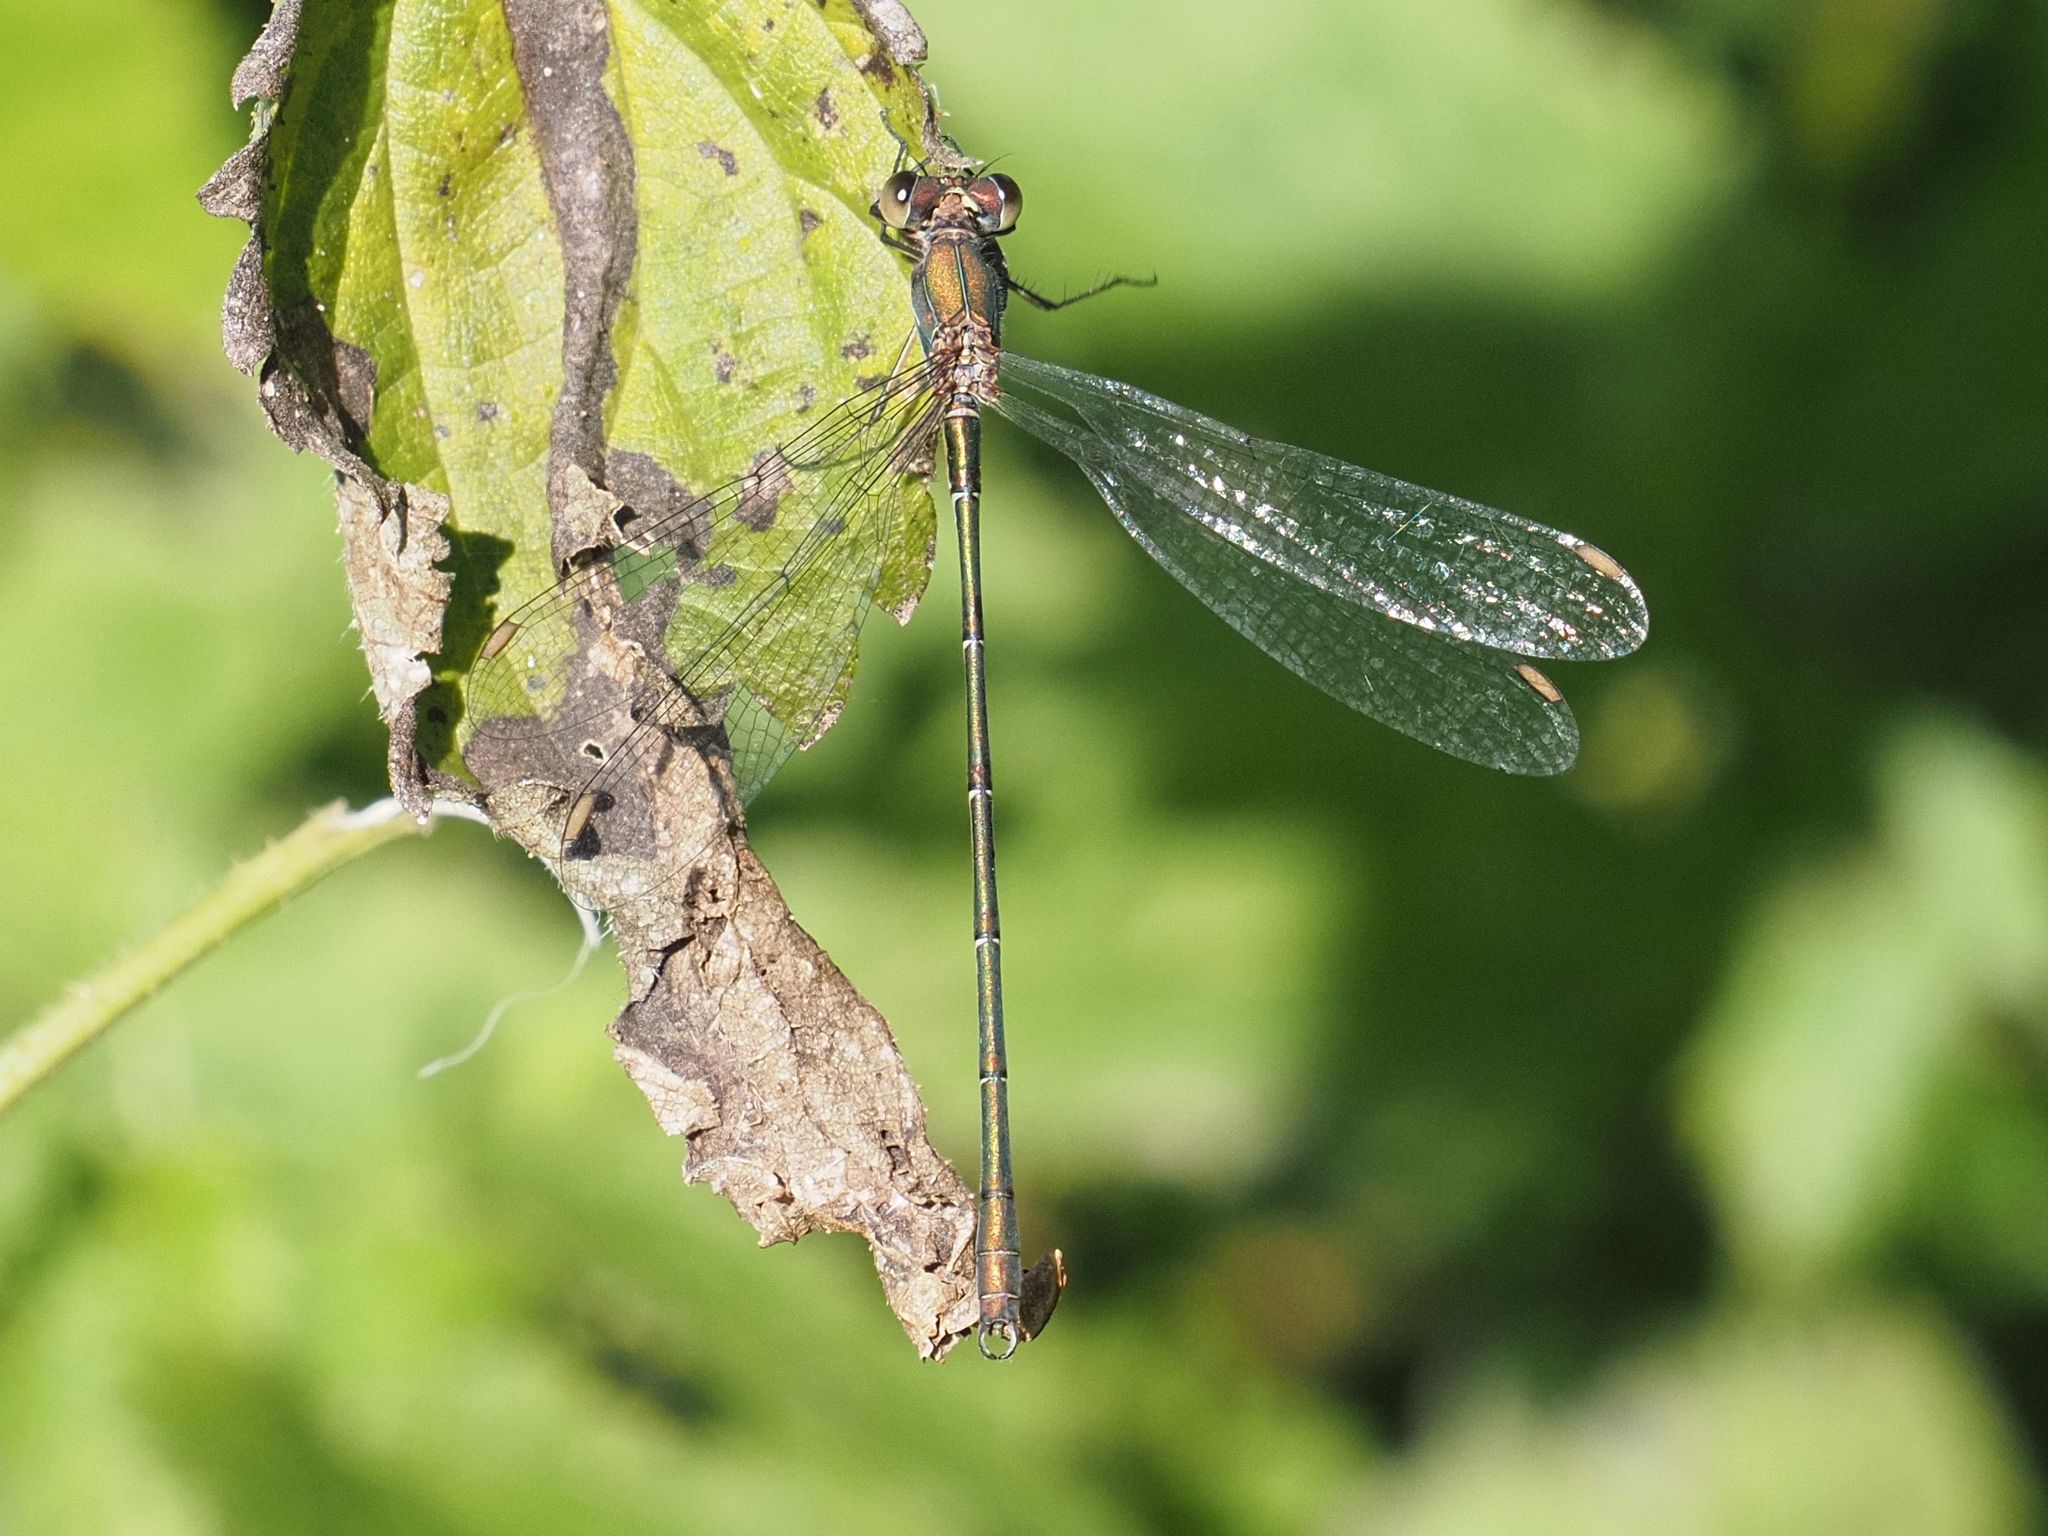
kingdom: Animalia
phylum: Arthropoda
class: Insecta
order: Odonata
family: Lestidae
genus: Chalcolestes
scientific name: Chalcolestes viridis
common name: Green emerald damselfly
